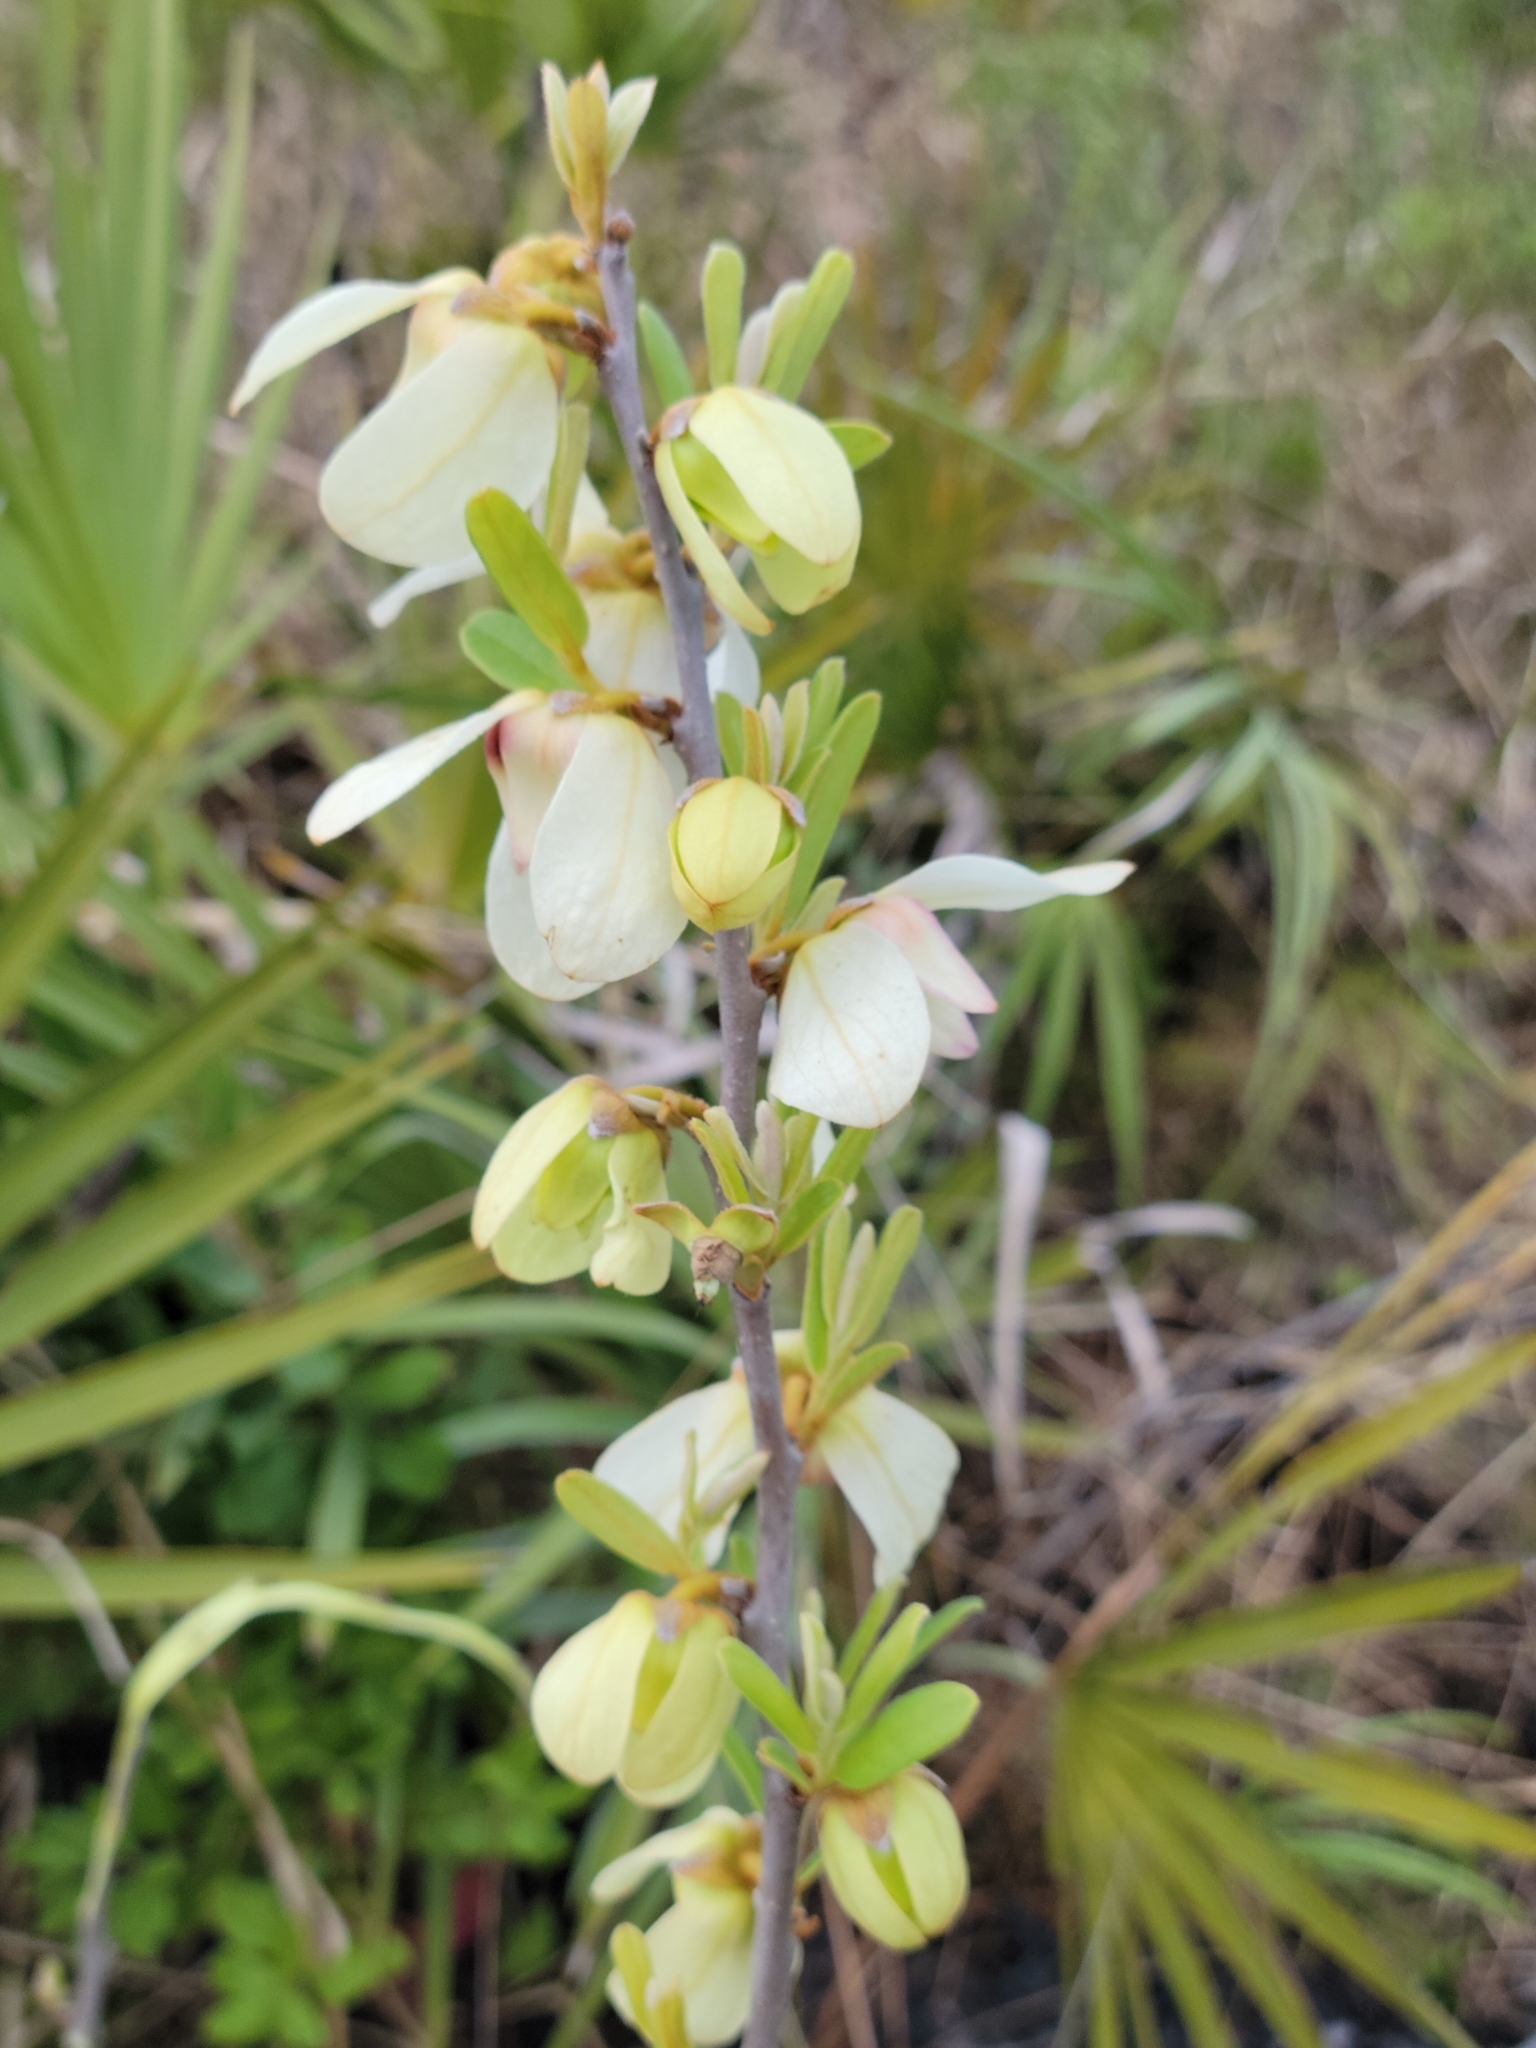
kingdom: Plantae
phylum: Tracheophyta
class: Magnoliopsida
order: Magnoliales
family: Annonaceae
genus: Asimina
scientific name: Asimina reticulata
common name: Flag pawpaw
